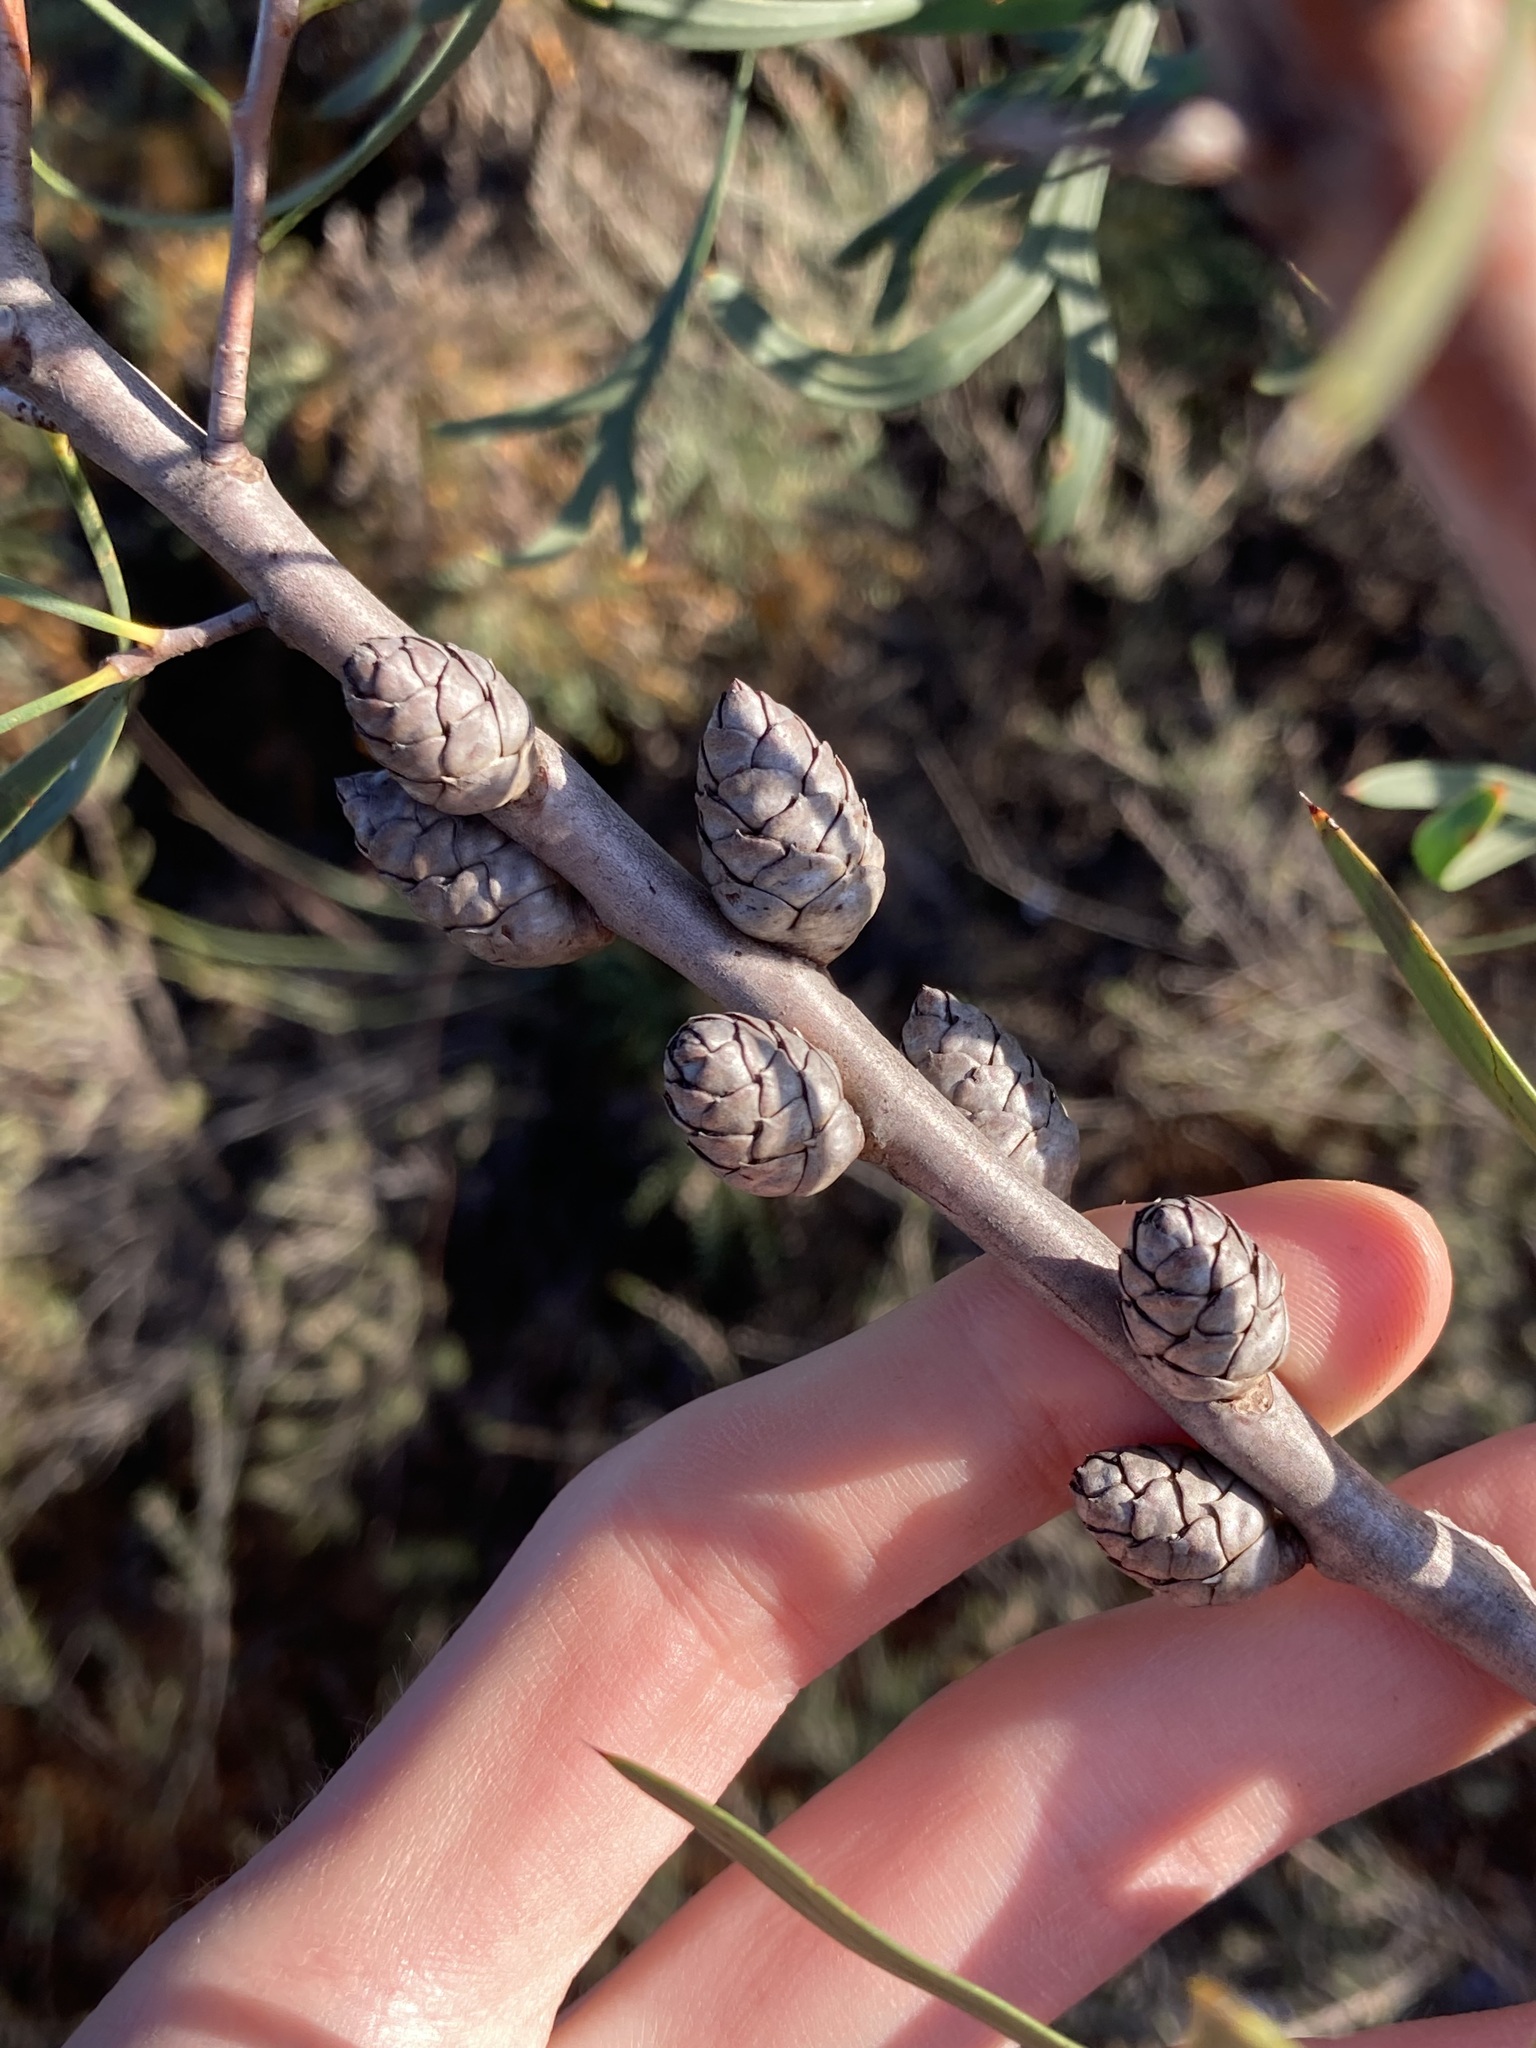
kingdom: Plantae
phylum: Tracheophyta
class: Magnoliopsida
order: Proteales
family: Proteaceae
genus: Petrophile
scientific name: Petrophile heterophylla
